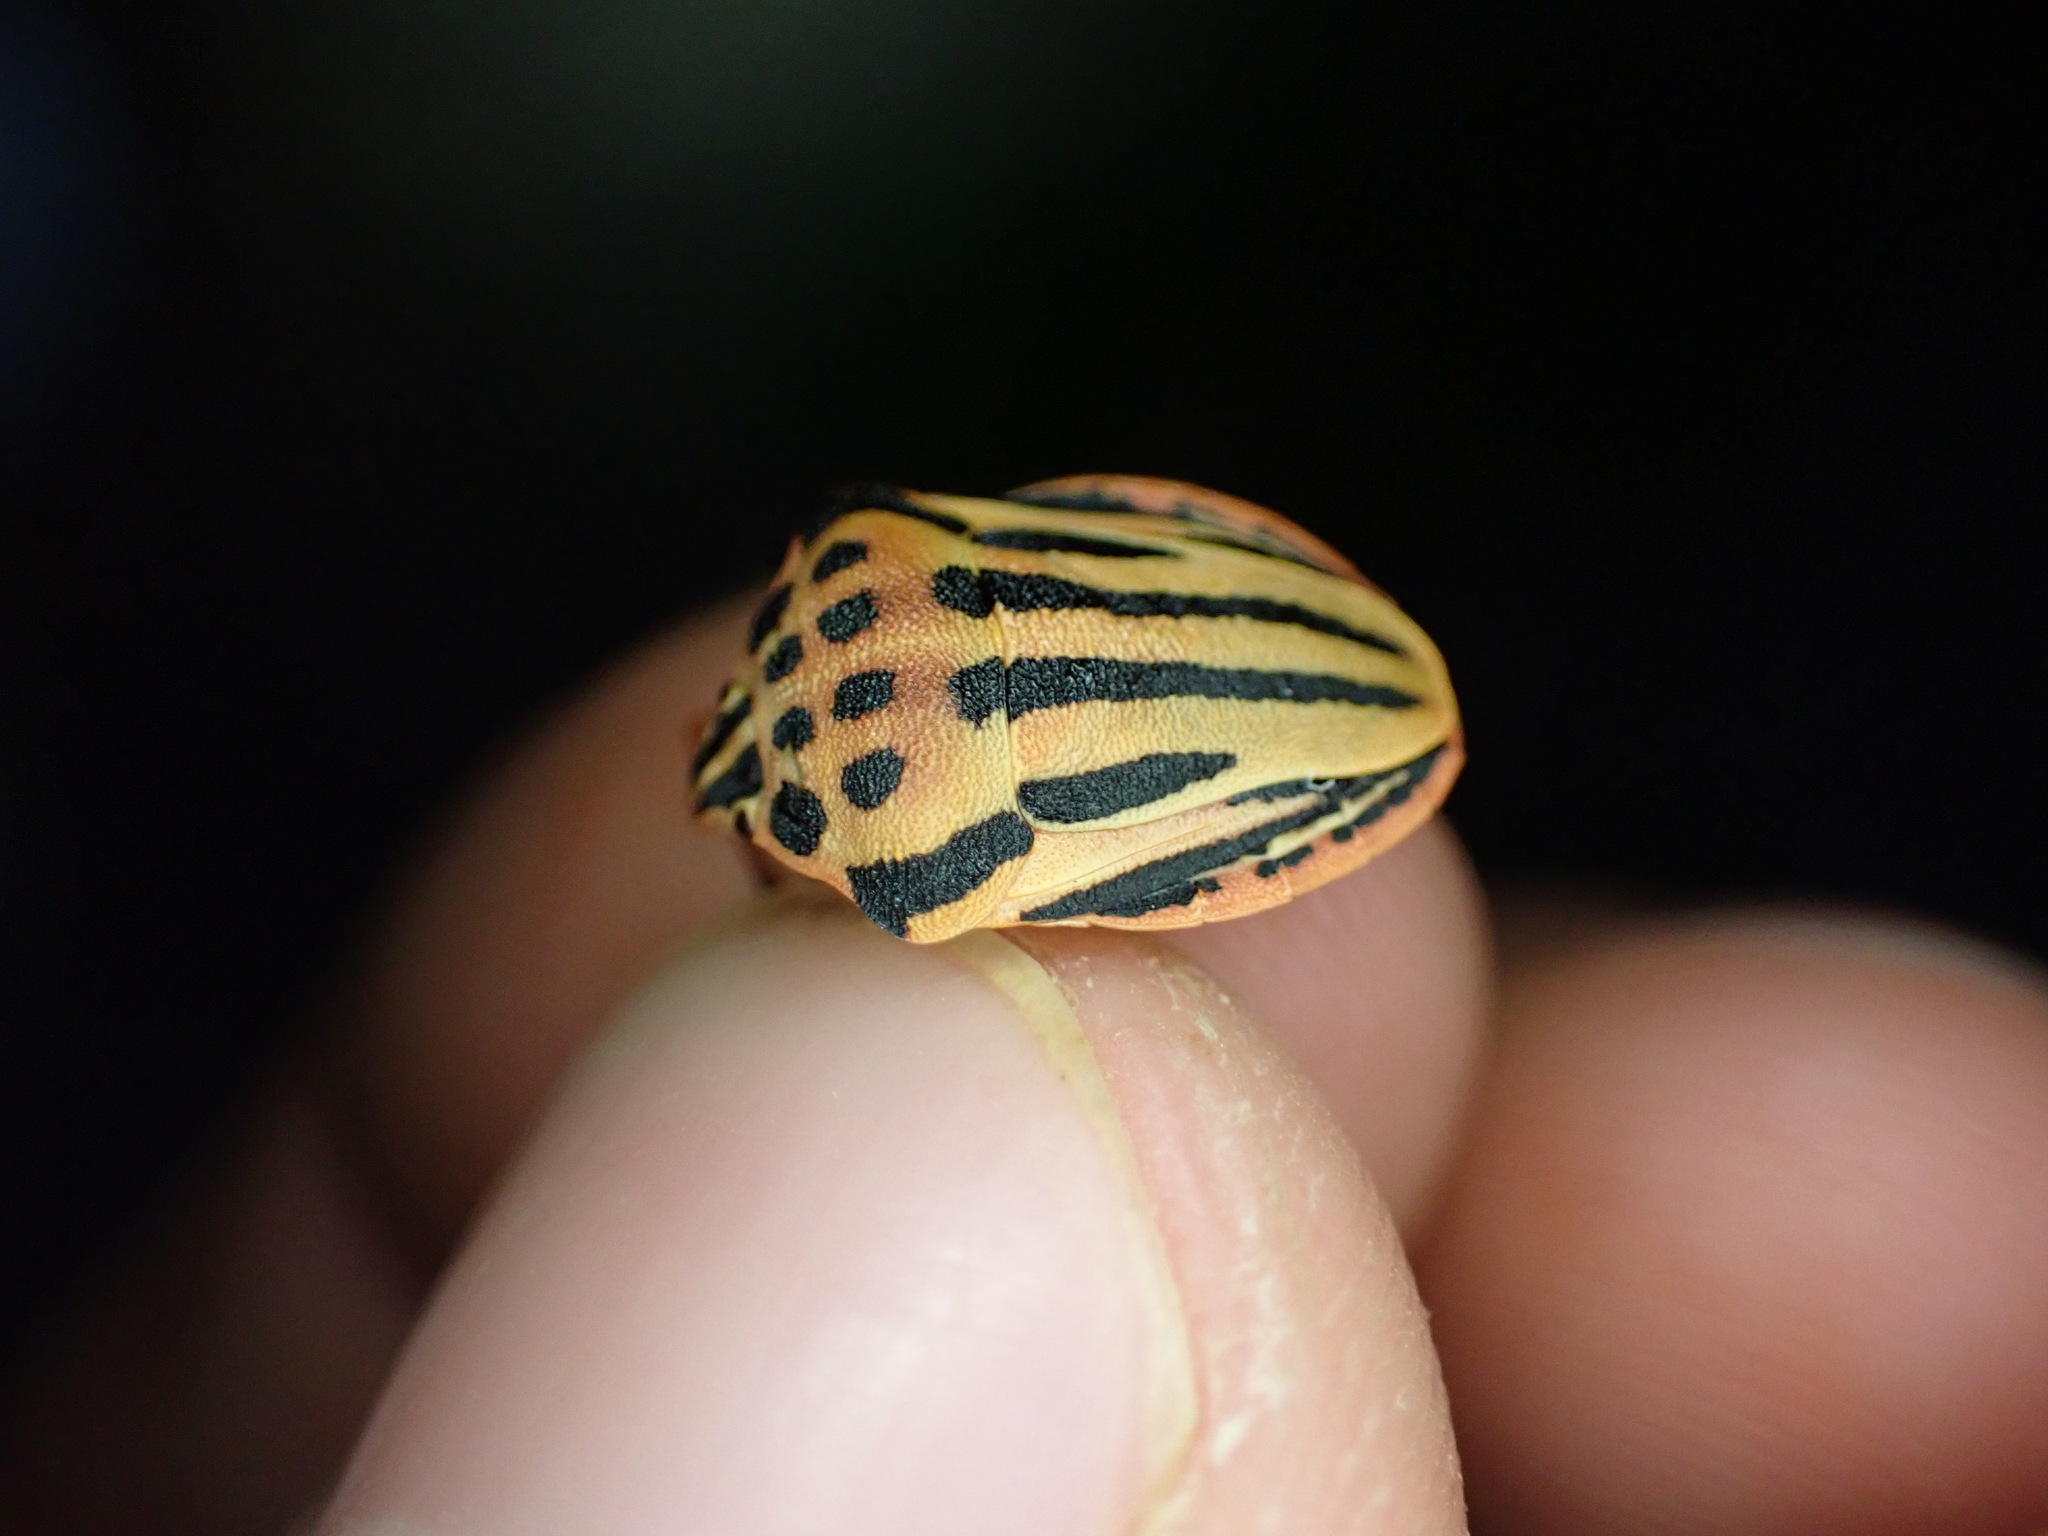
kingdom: Animalia
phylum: Arthropoda
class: Insecta
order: Hemiptera
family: Pentatomidae
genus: Graphosoma
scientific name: Graphosoma semipunctatum
